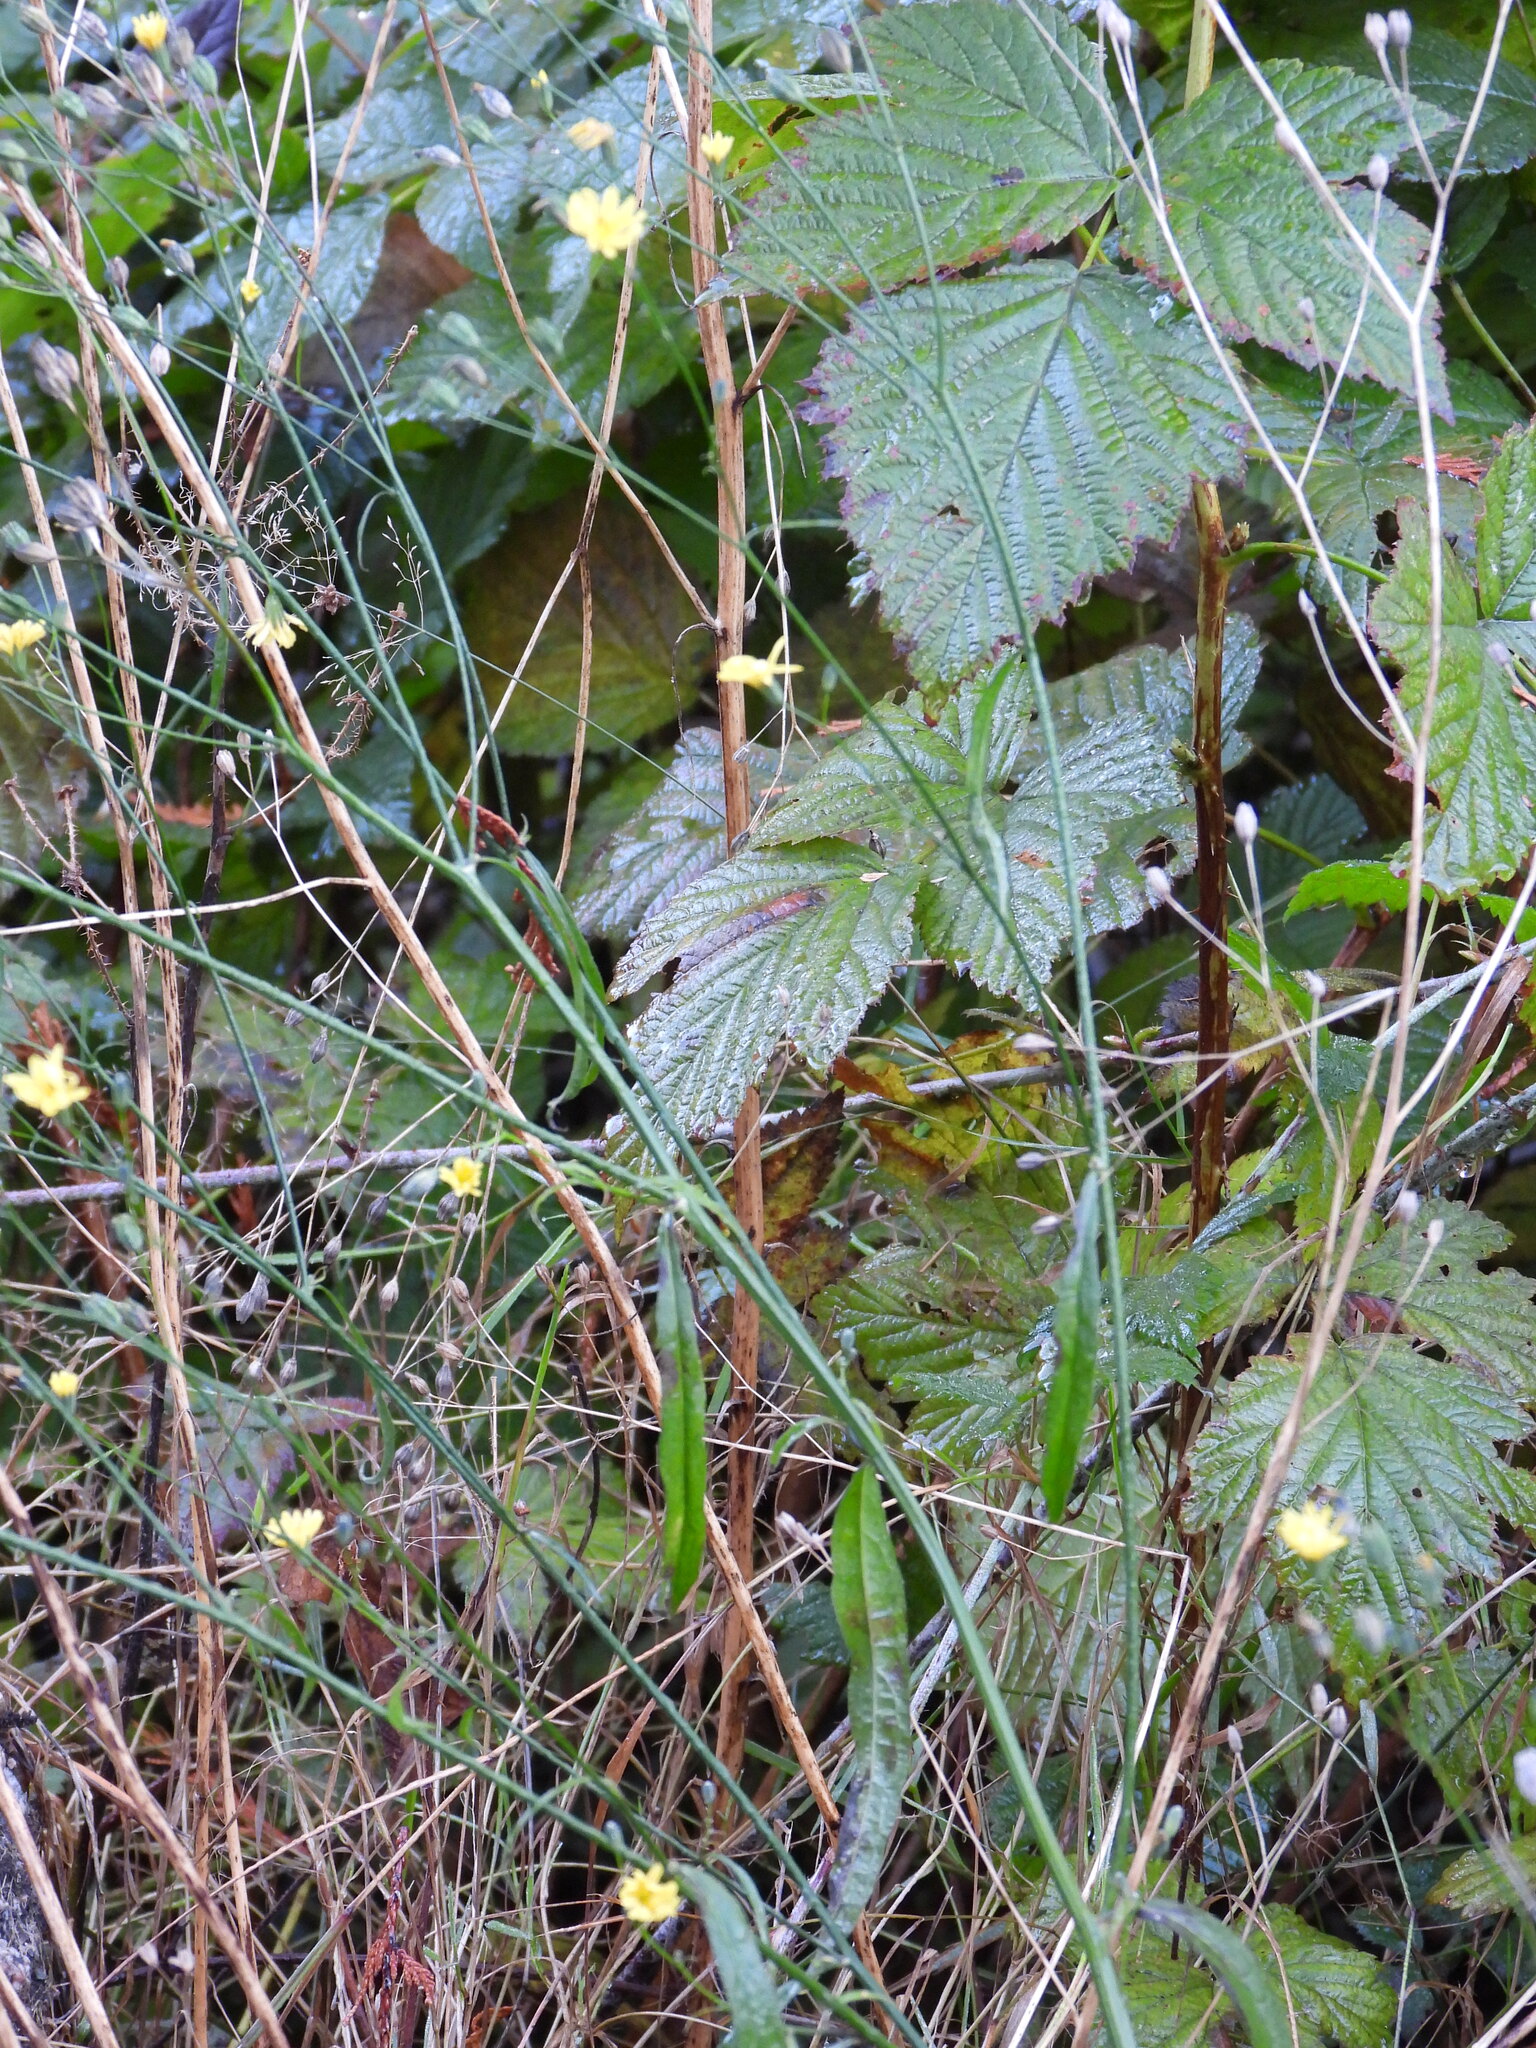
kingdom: Plantae
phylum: Tracheophyta
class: Magnoliopsida
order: Asterales
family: Asteraceae
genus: Lapsana
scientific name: Lapsana communis
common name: Nipplewort
